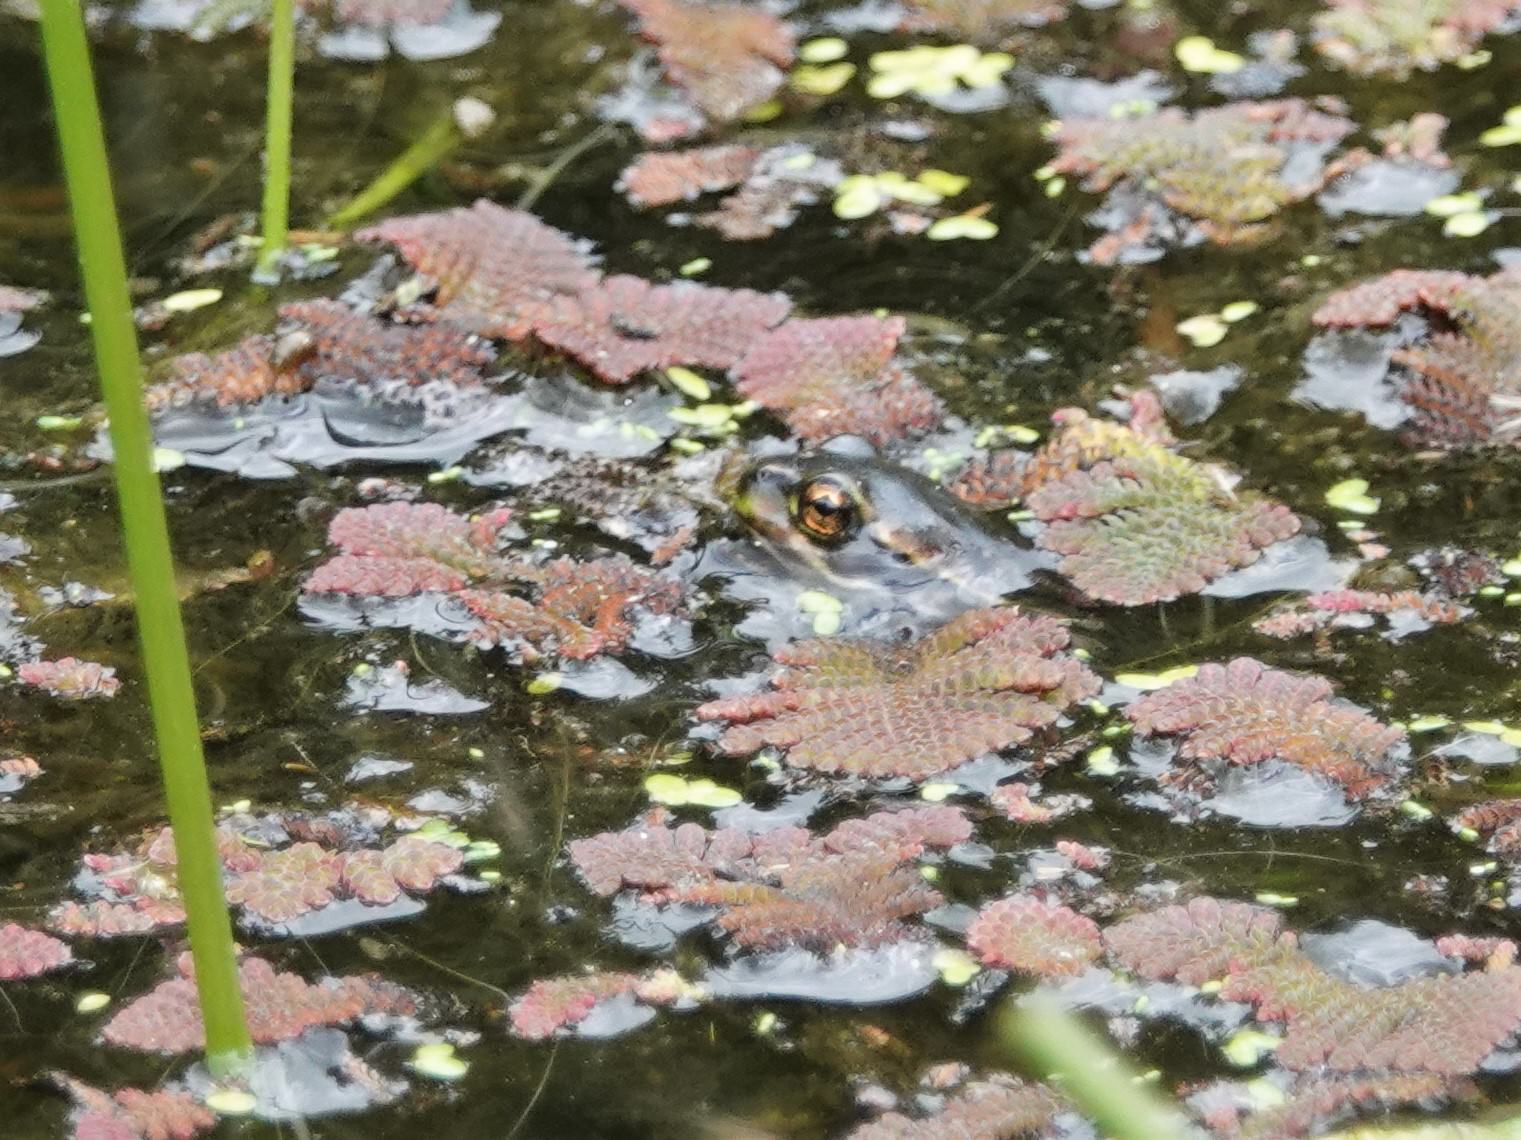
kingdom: Plantae
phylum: Tracheophyta
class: Polypodiopsida
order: Salviniales
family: Salviniaceae
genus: Azolla
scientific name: Azolla pinnata
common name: Ferny azolla
